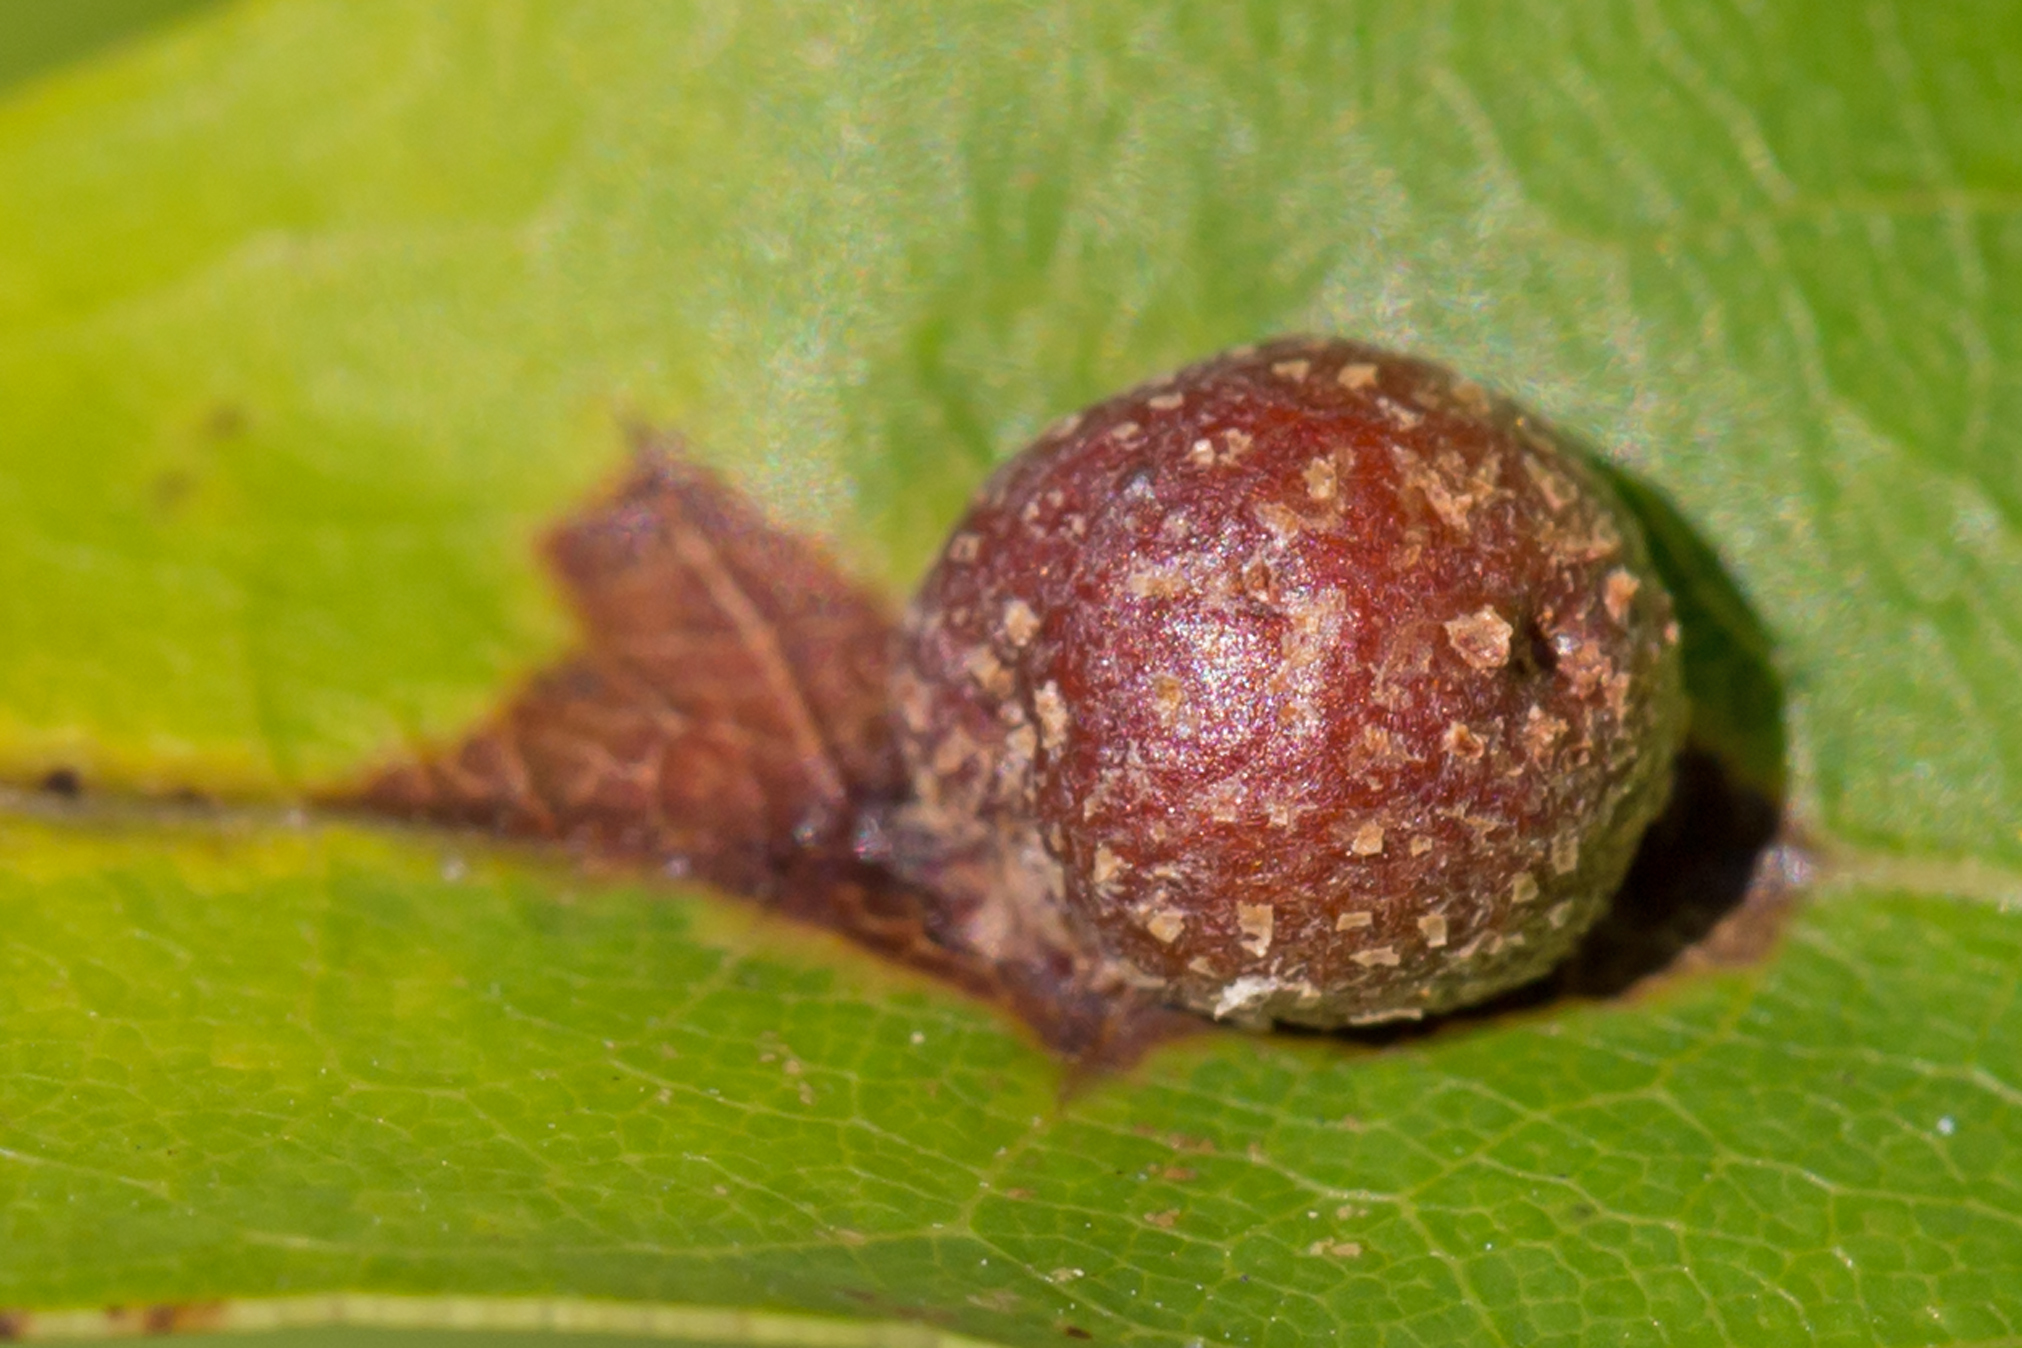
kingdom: Animalia
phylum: Arthropoda
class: Insecta
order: Diptera
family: Cecidomyiidae
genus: Polystepha
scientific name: Polystepha pilulae
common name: Oak leaf gall midge
